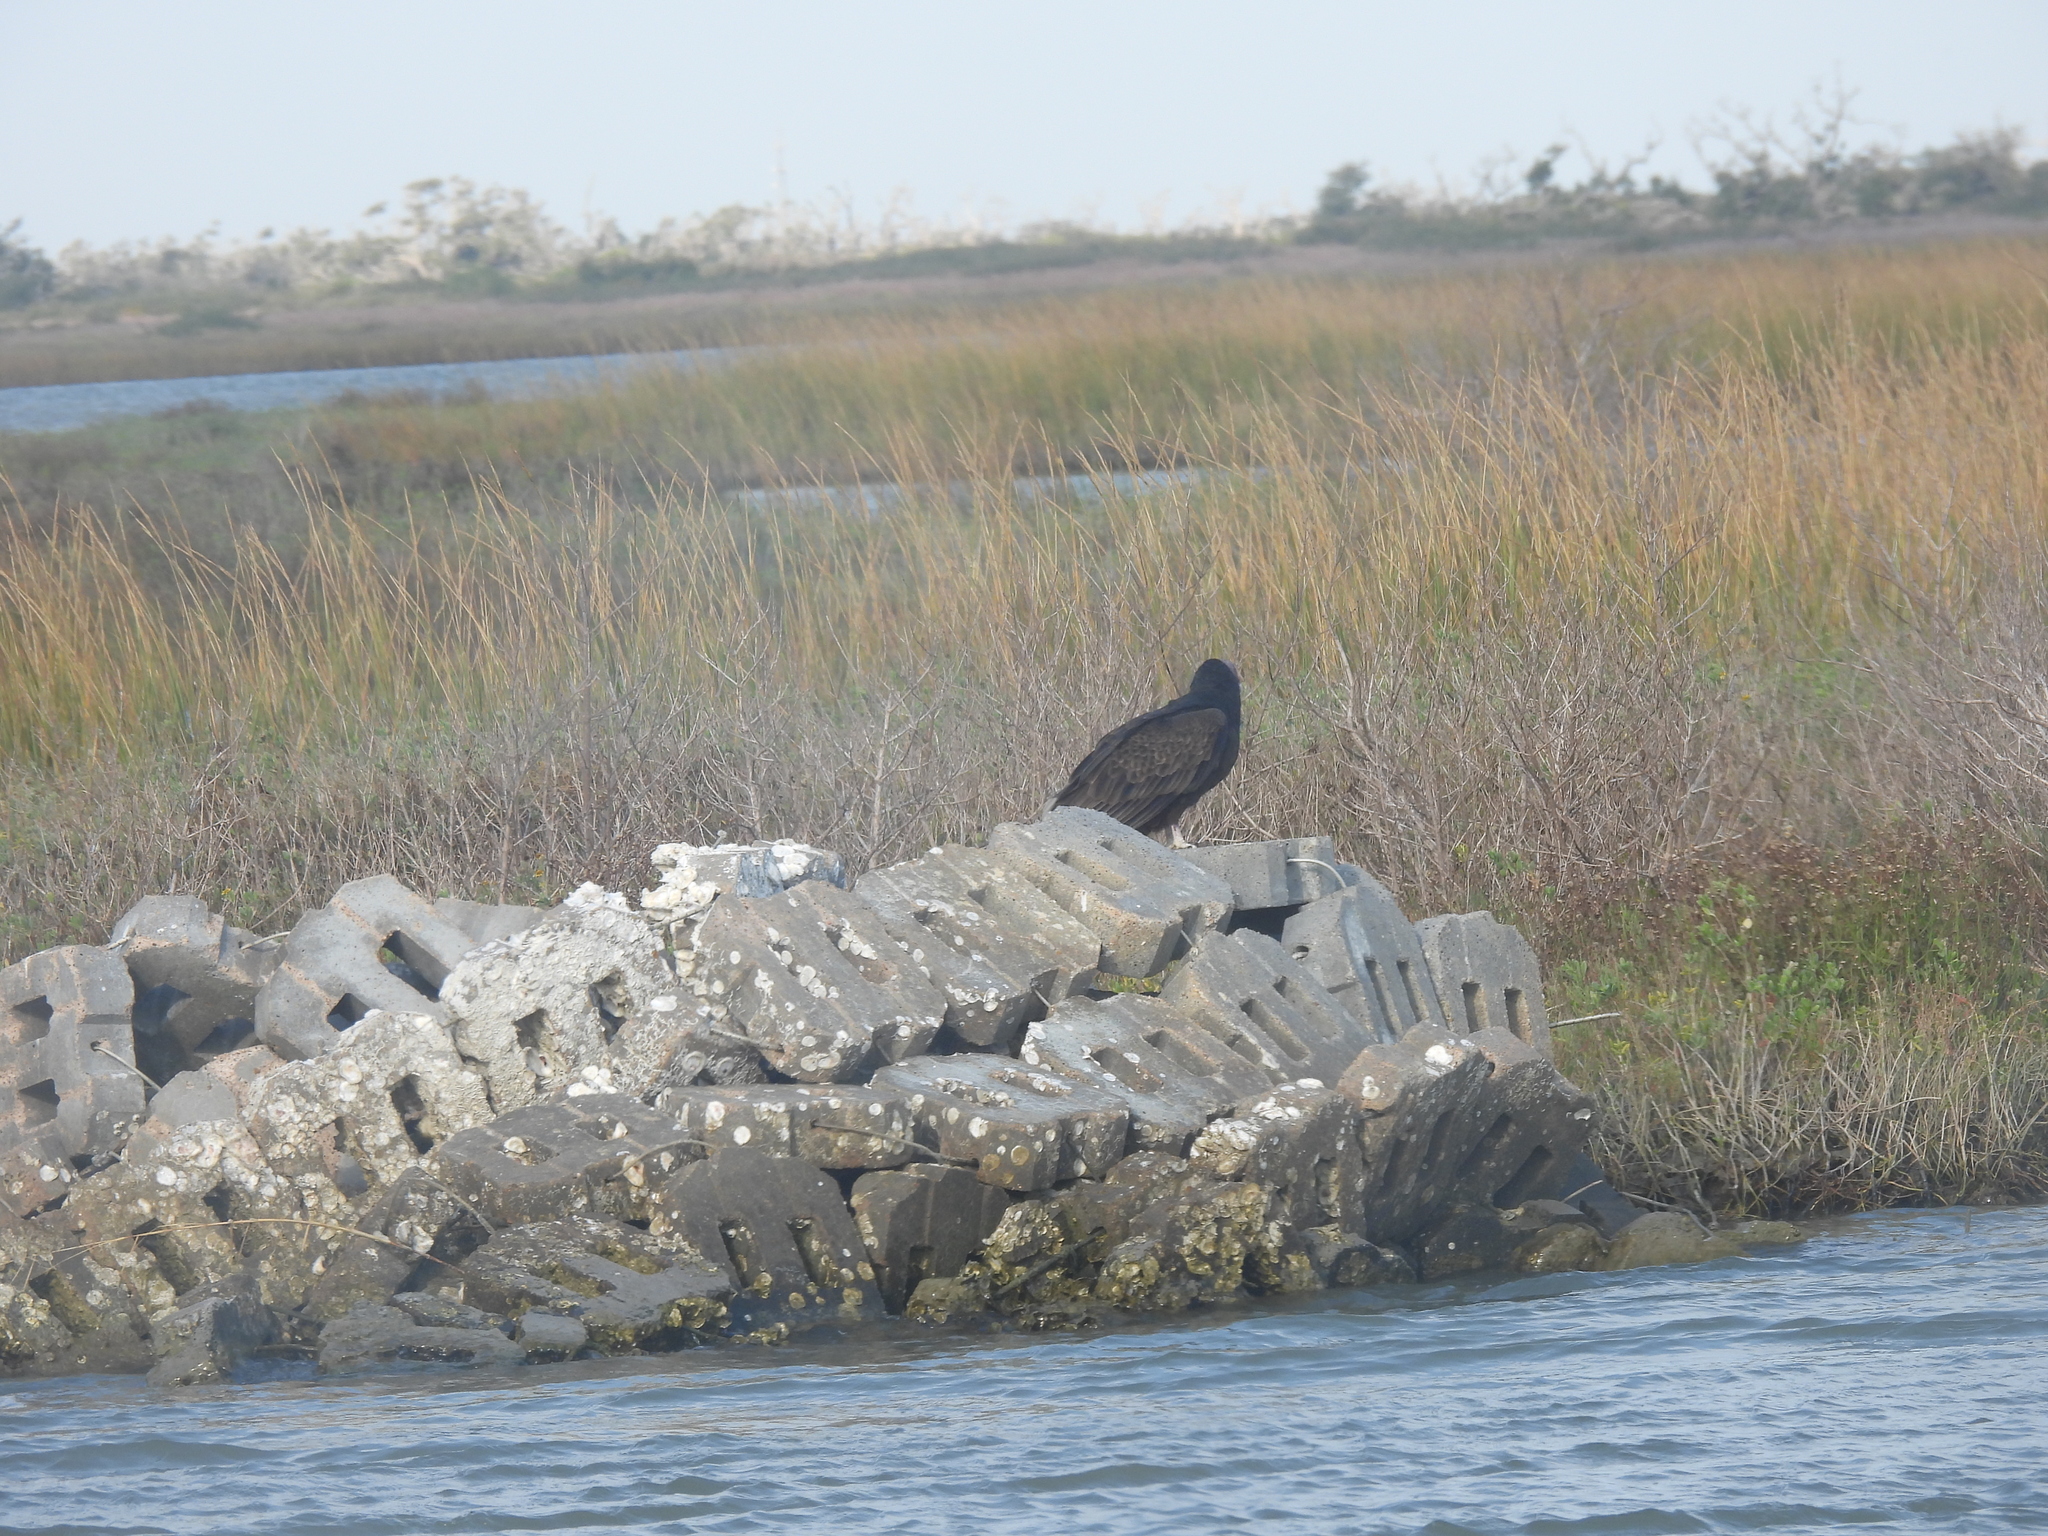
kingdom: Animalia
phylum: Chordata
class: Aves
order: Accipitriformes
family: Cathartidae
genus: Cathartes
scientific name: Cathartes aura
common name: Turkey vulture
